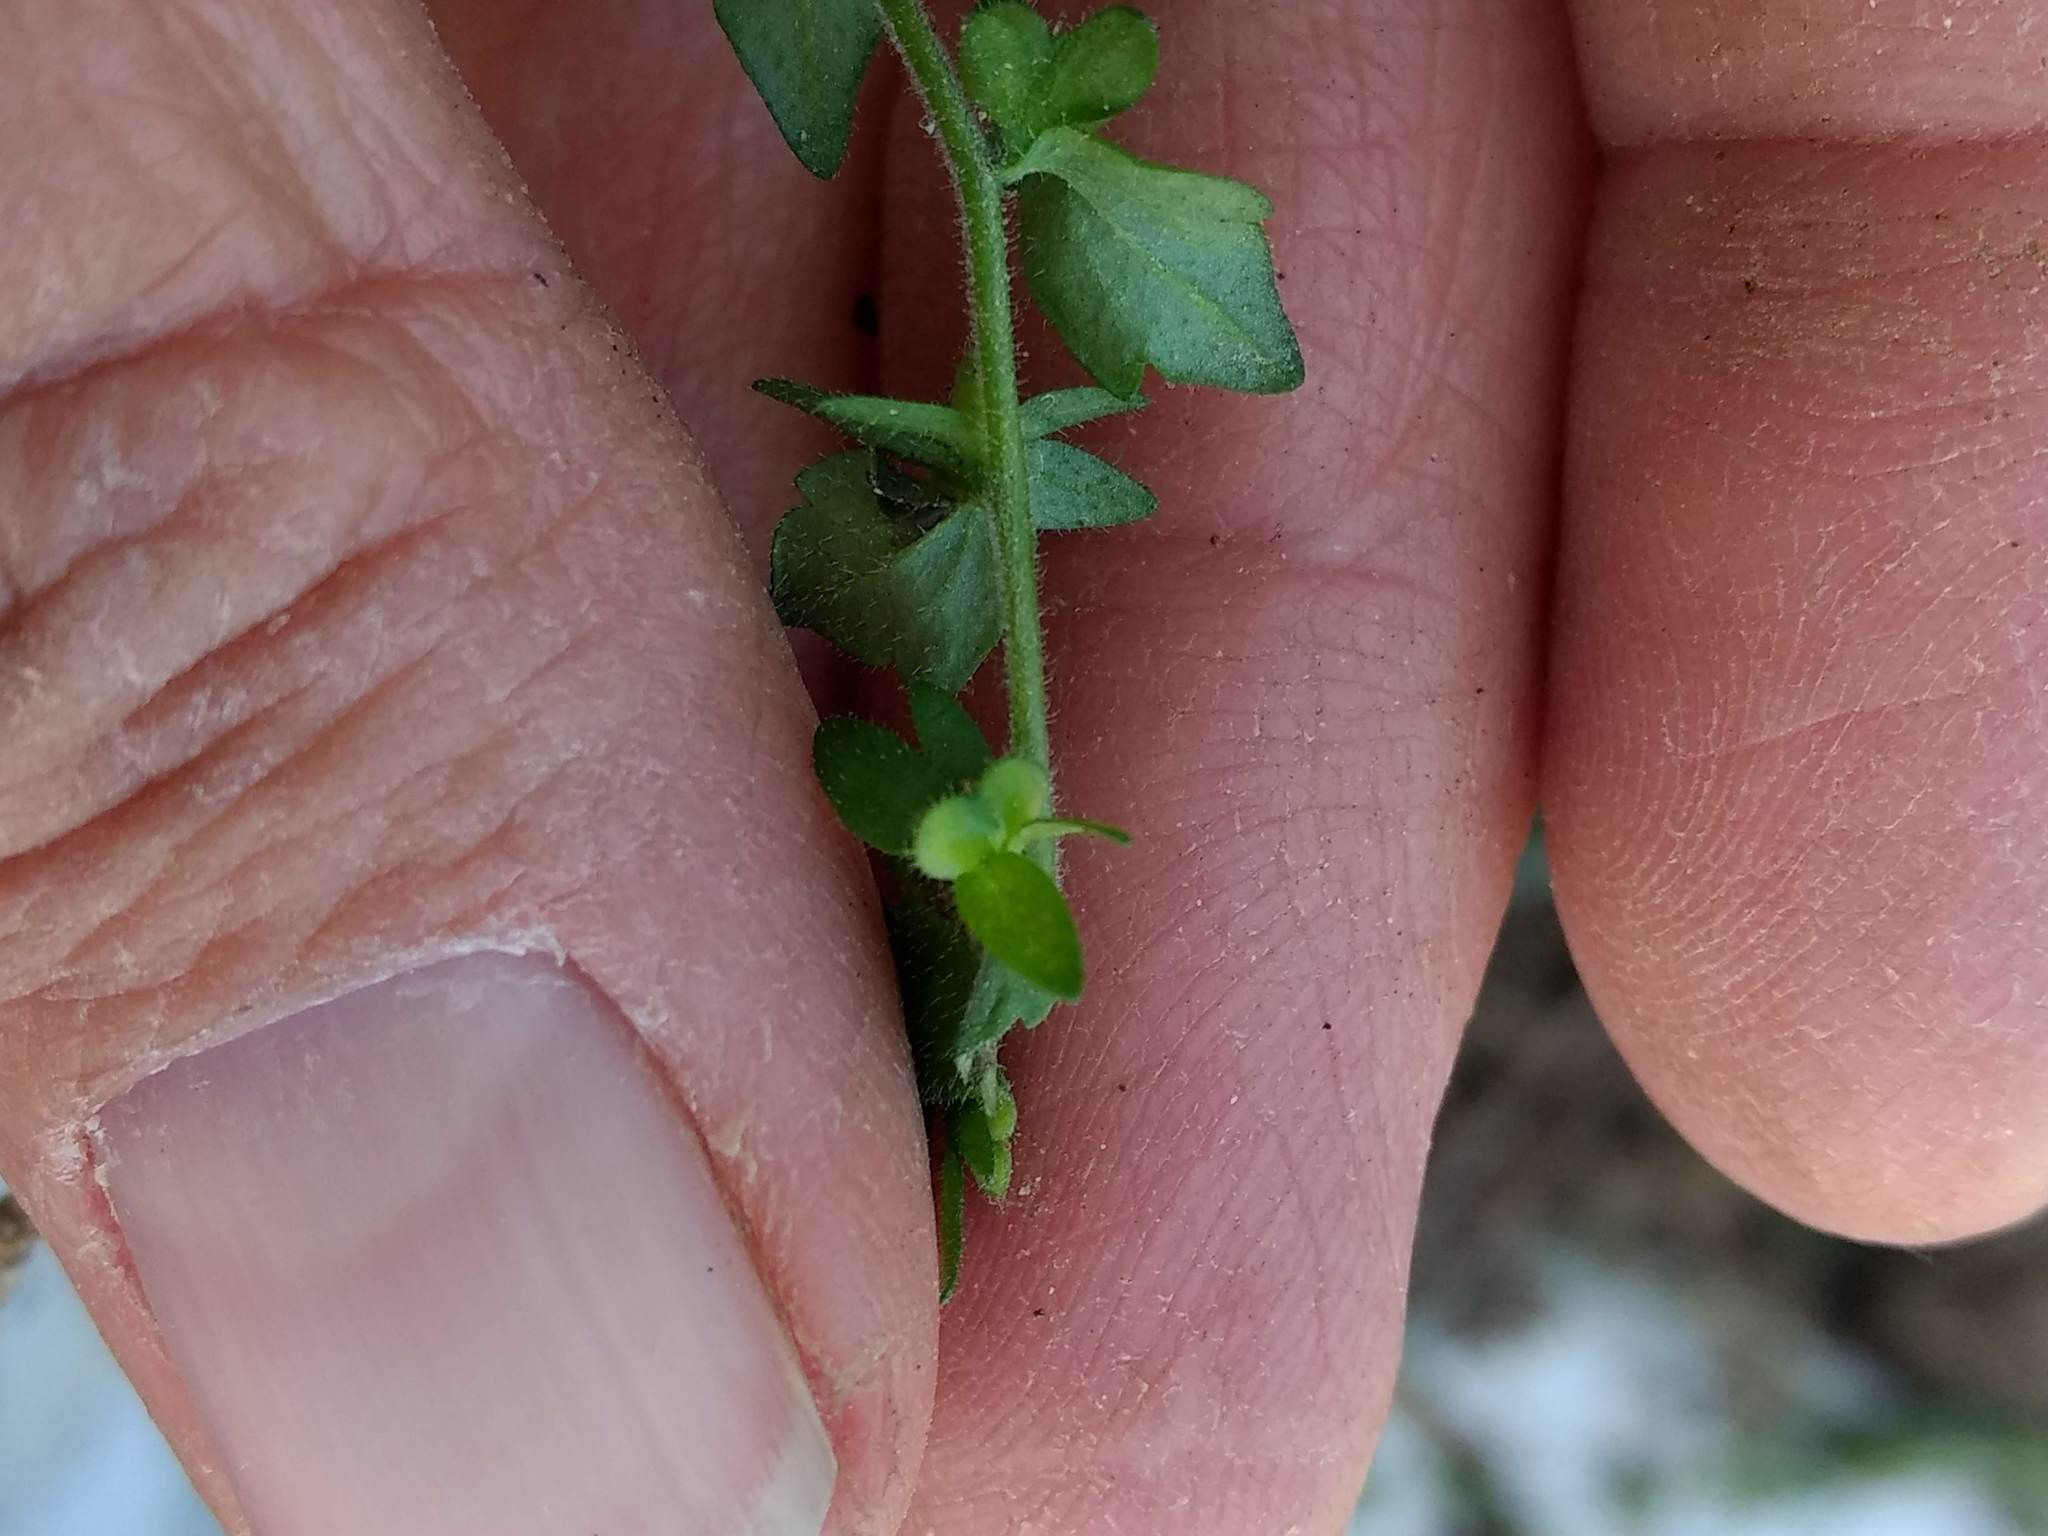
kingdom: Plantae
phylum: Tracheophyta
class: Magnoliopsida
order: Lamiales
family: Plantaginaceae
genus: Veronica
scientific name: Veronica arvensis
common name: Corn speedwell
